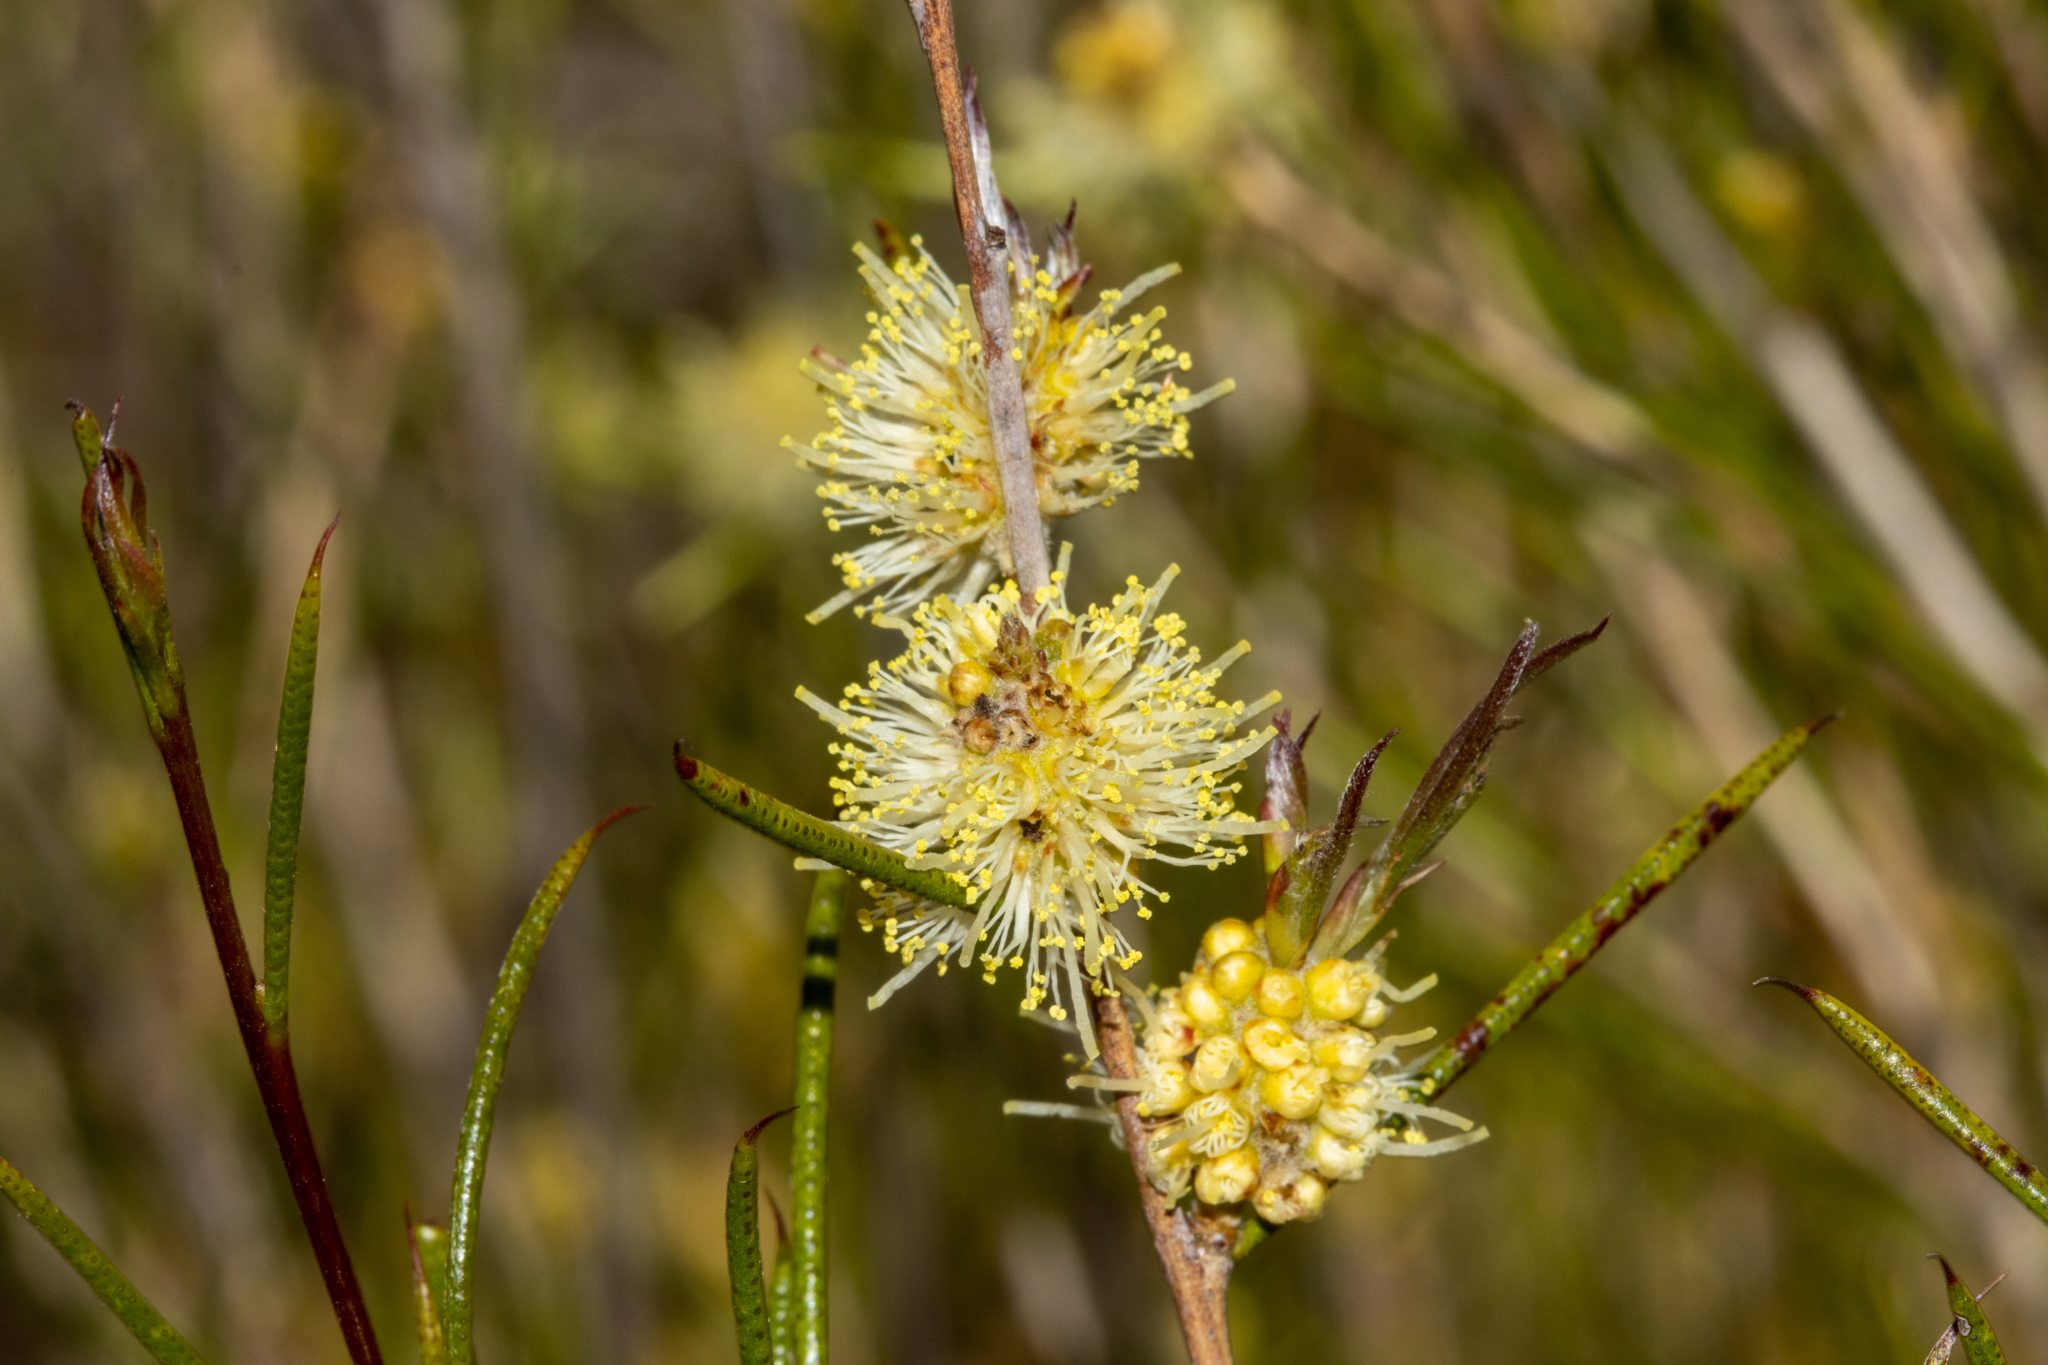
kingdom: Plantae
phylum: Tracheophyta
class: Magnoliopsida
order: Myrtales
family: Myrtaceae
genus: Melaleuca
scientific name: Melaleuca uncinata
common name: Broom honey myrtle
